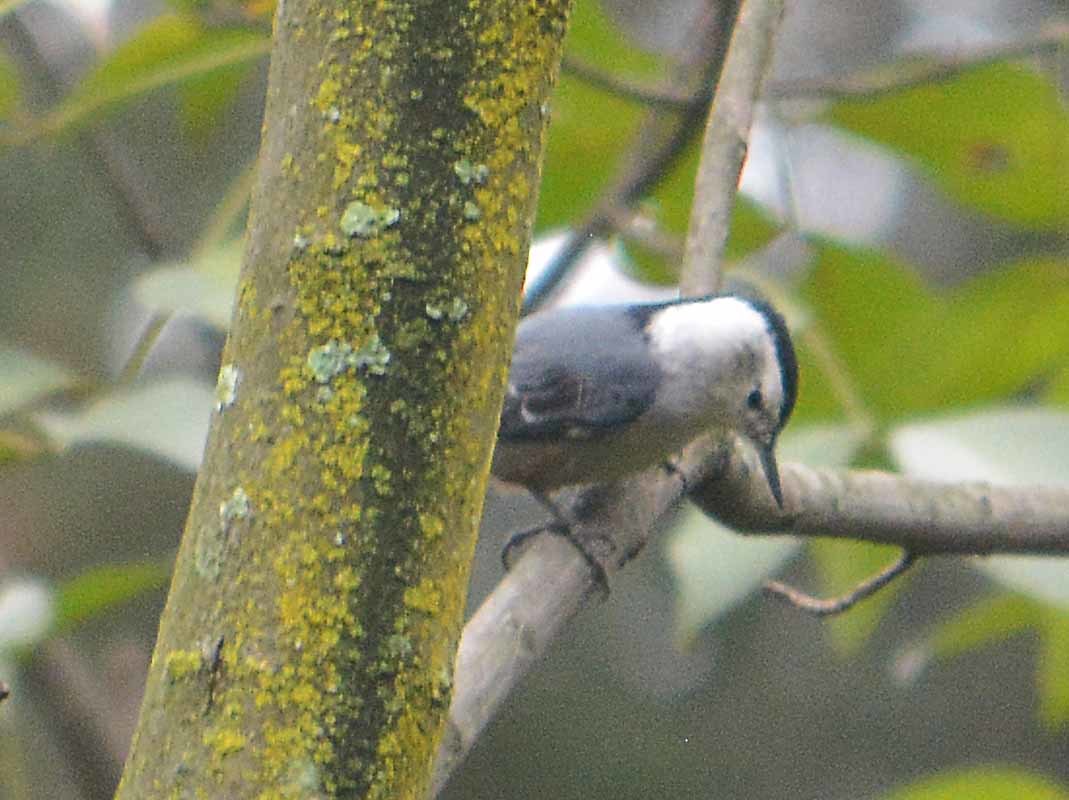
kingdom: Animalia
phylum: Chordata
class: Aves
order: Passeriformes
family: Sittidae
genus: Sitta
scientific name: Sitta carolinensis
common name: White-breasted nuthatch
